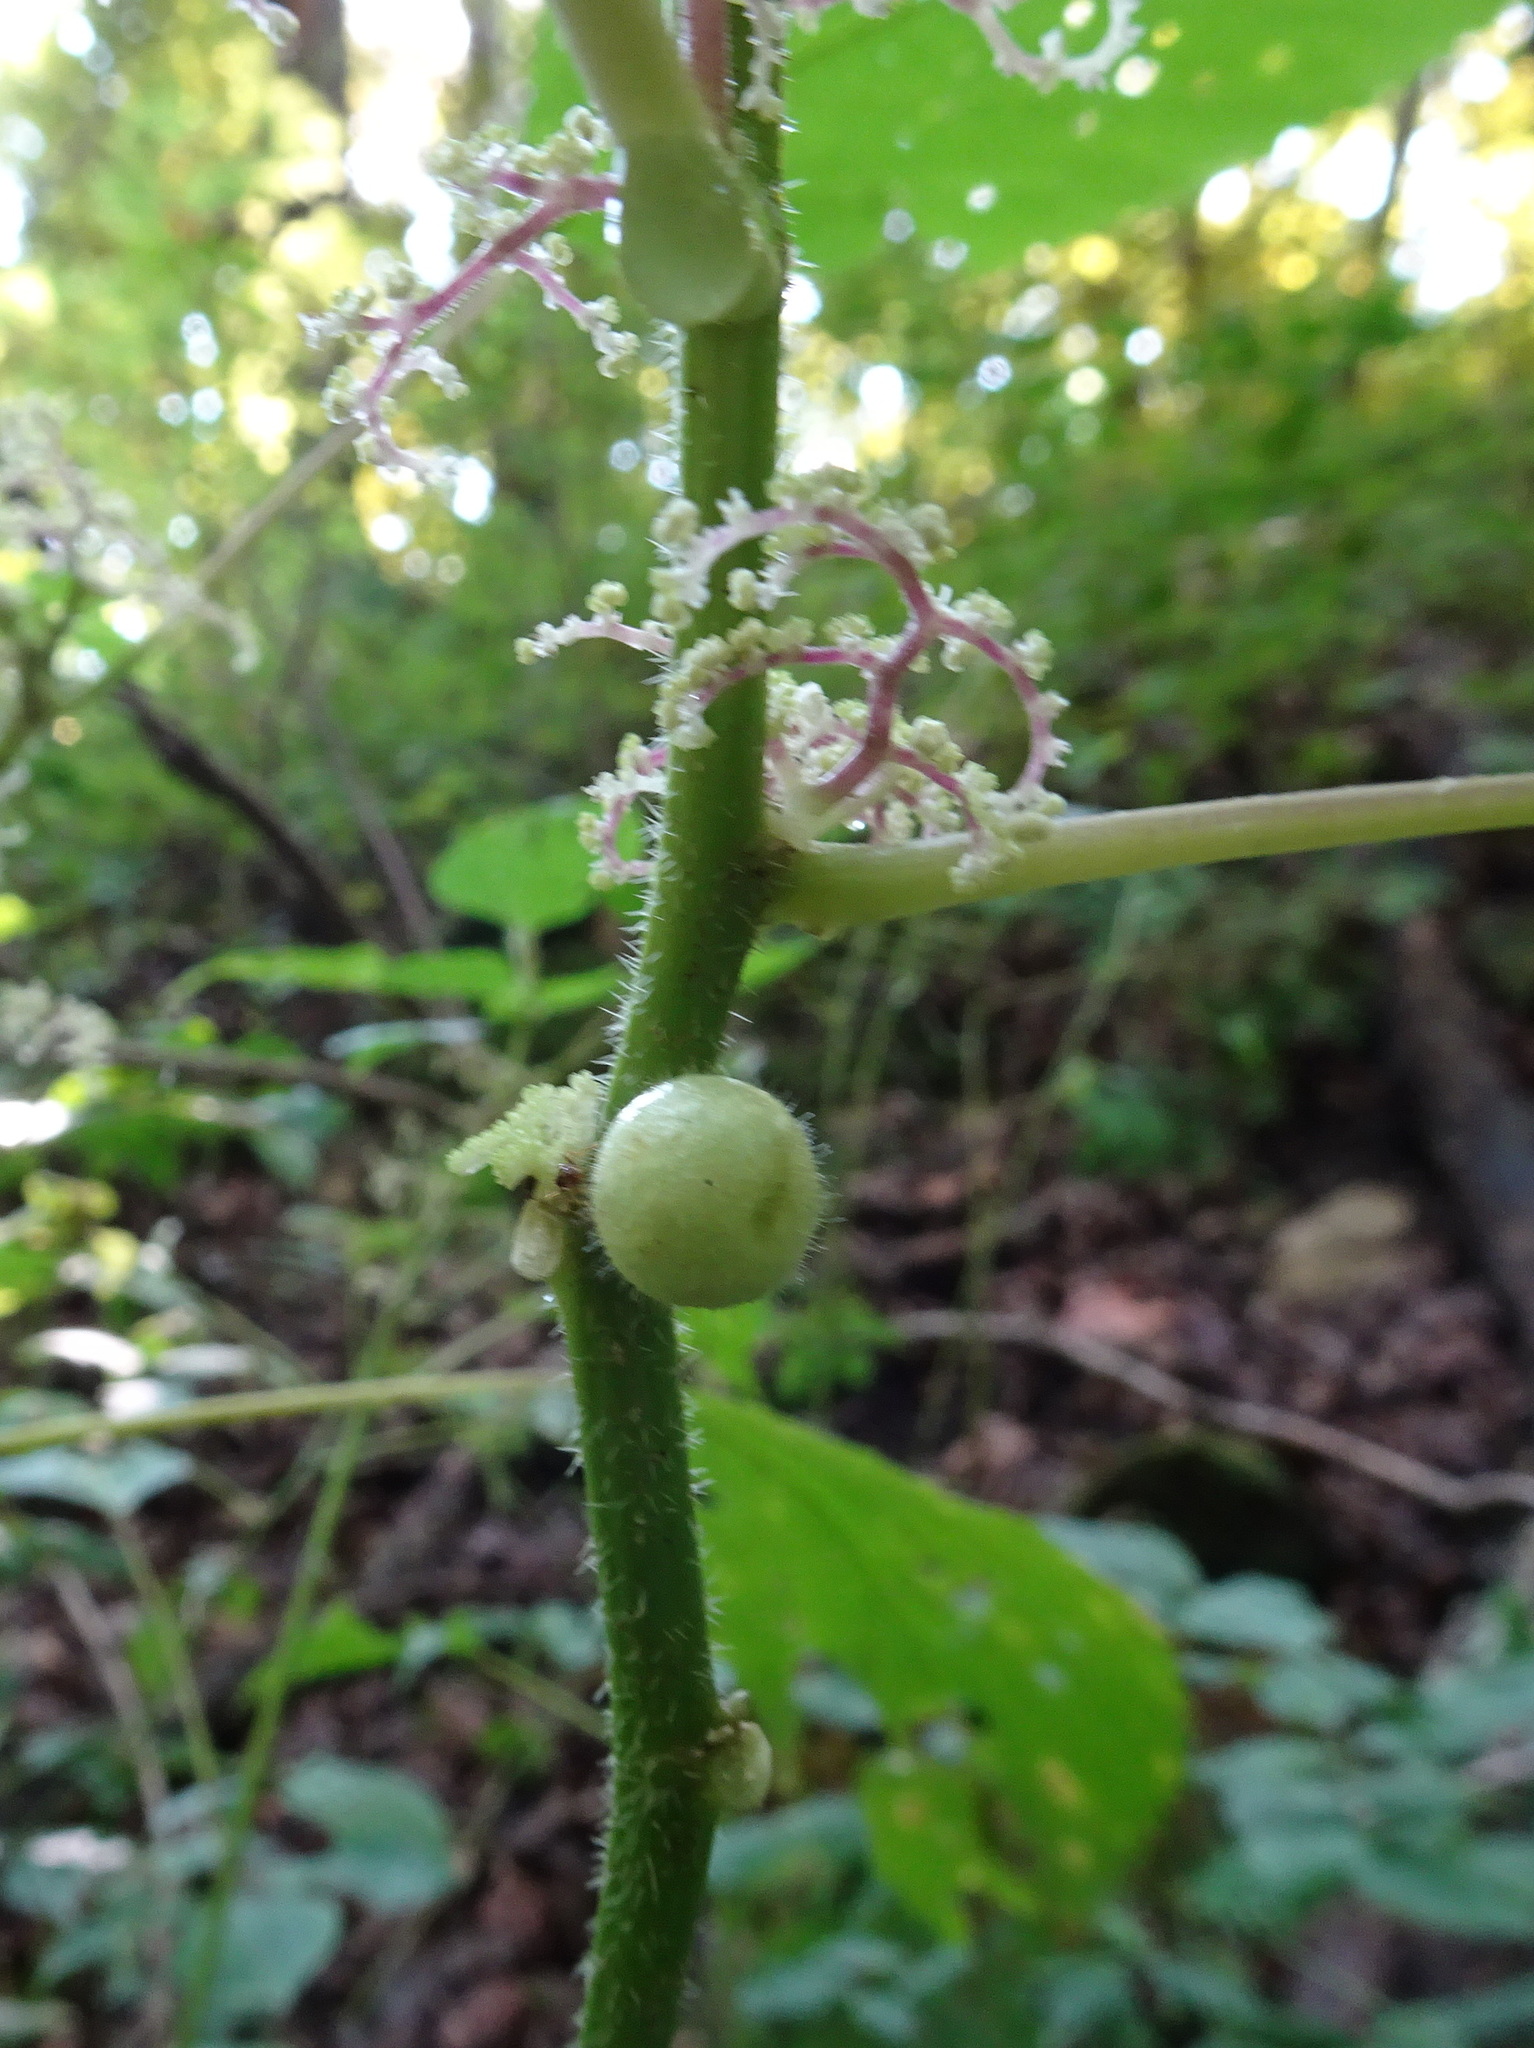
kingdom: Animalia
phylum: Arthropoda
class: Insecta
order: Diptera
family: Cecidomyiidae
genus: Dasineura
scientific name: Dasineura investita
